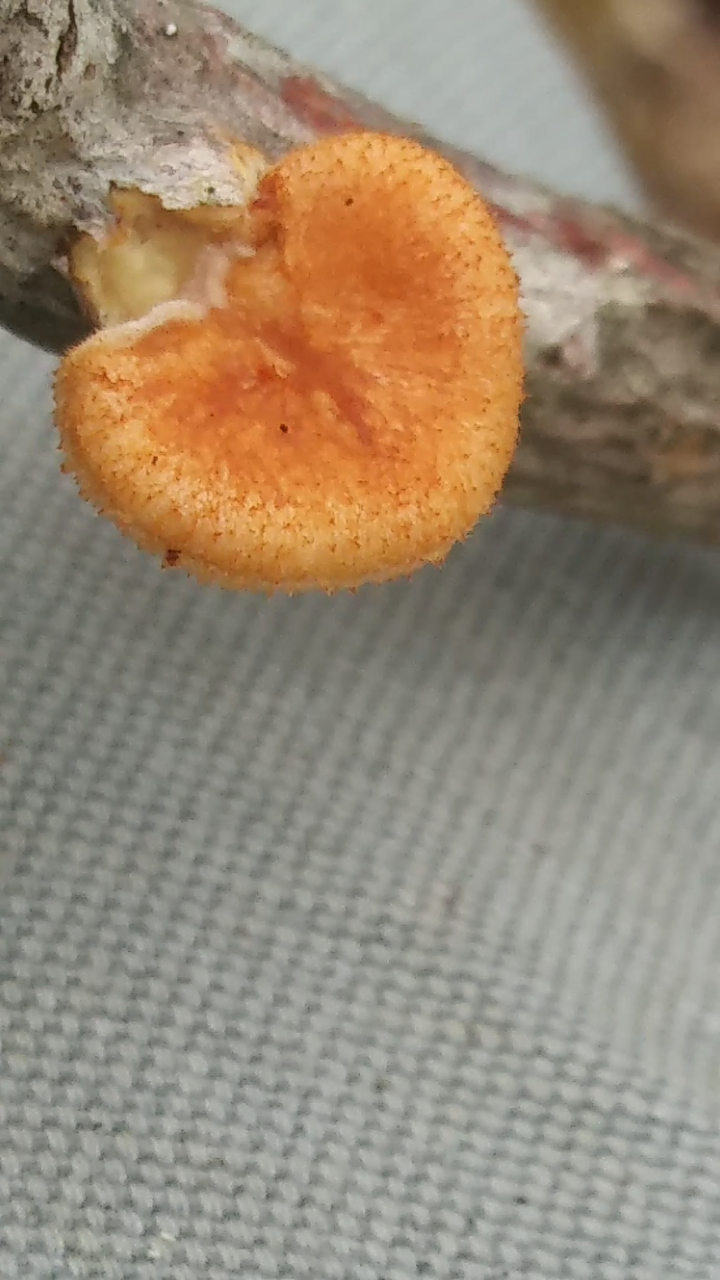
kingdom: Fungi
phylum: Basidiomycota
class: Agaricomycetes
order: Polyporales
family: Polyporaceae
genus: Neofavolus
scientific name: Neofavolus alveolaris
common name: Hexagonal-pored polypore
